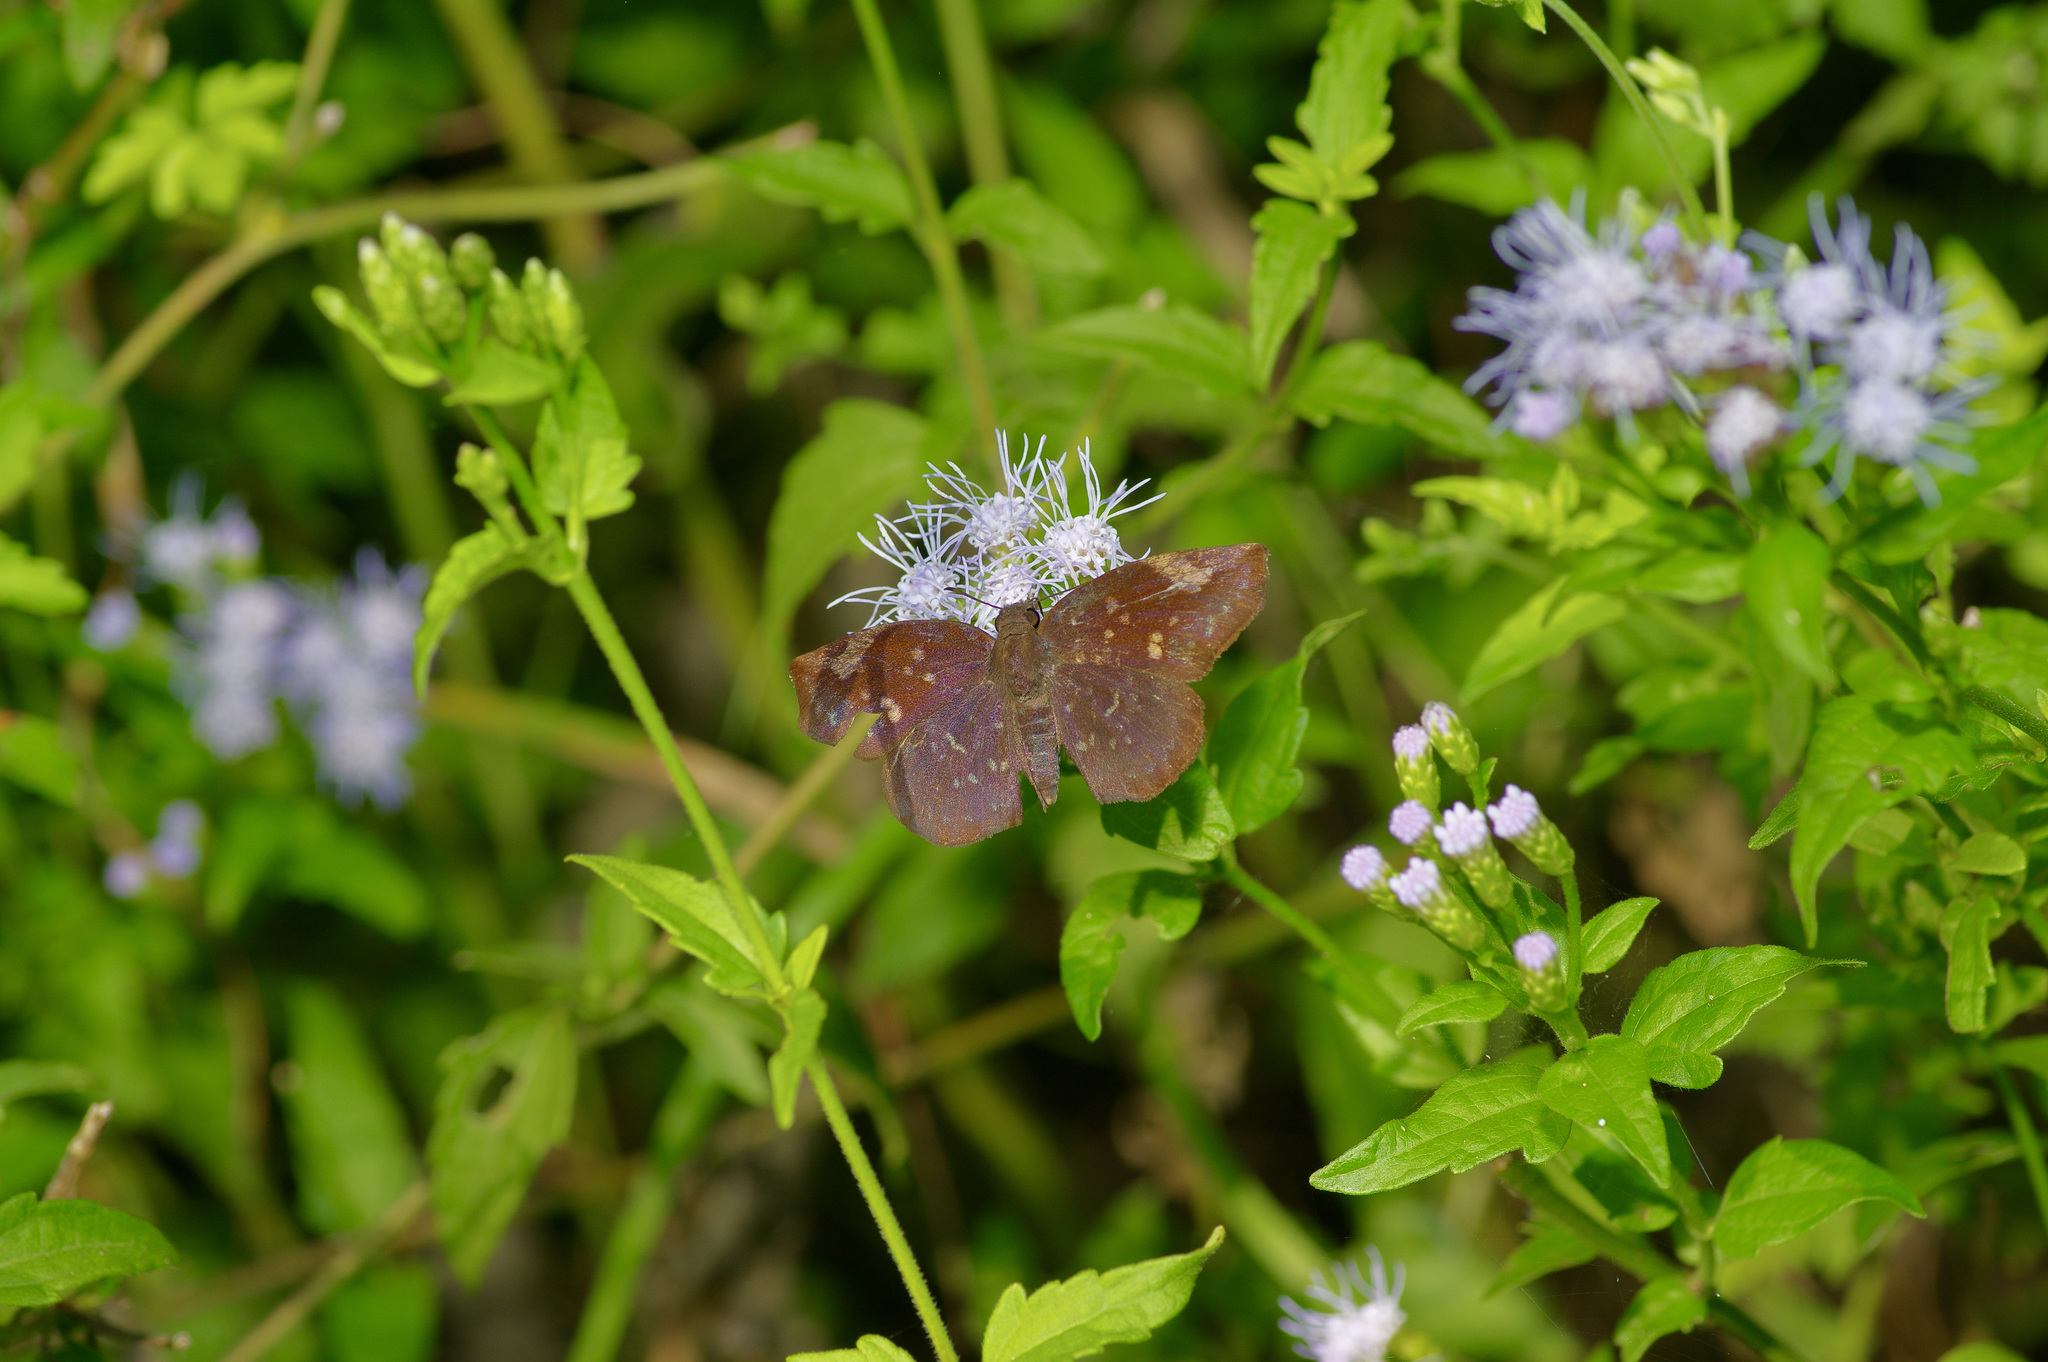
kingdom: Animalia
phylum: Arthropoda
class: Insecta
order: Lepidoptera
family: Hesperiidae
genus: Achlyodes
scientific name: Achlyodes thraso
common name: Sickle-winged skipper
